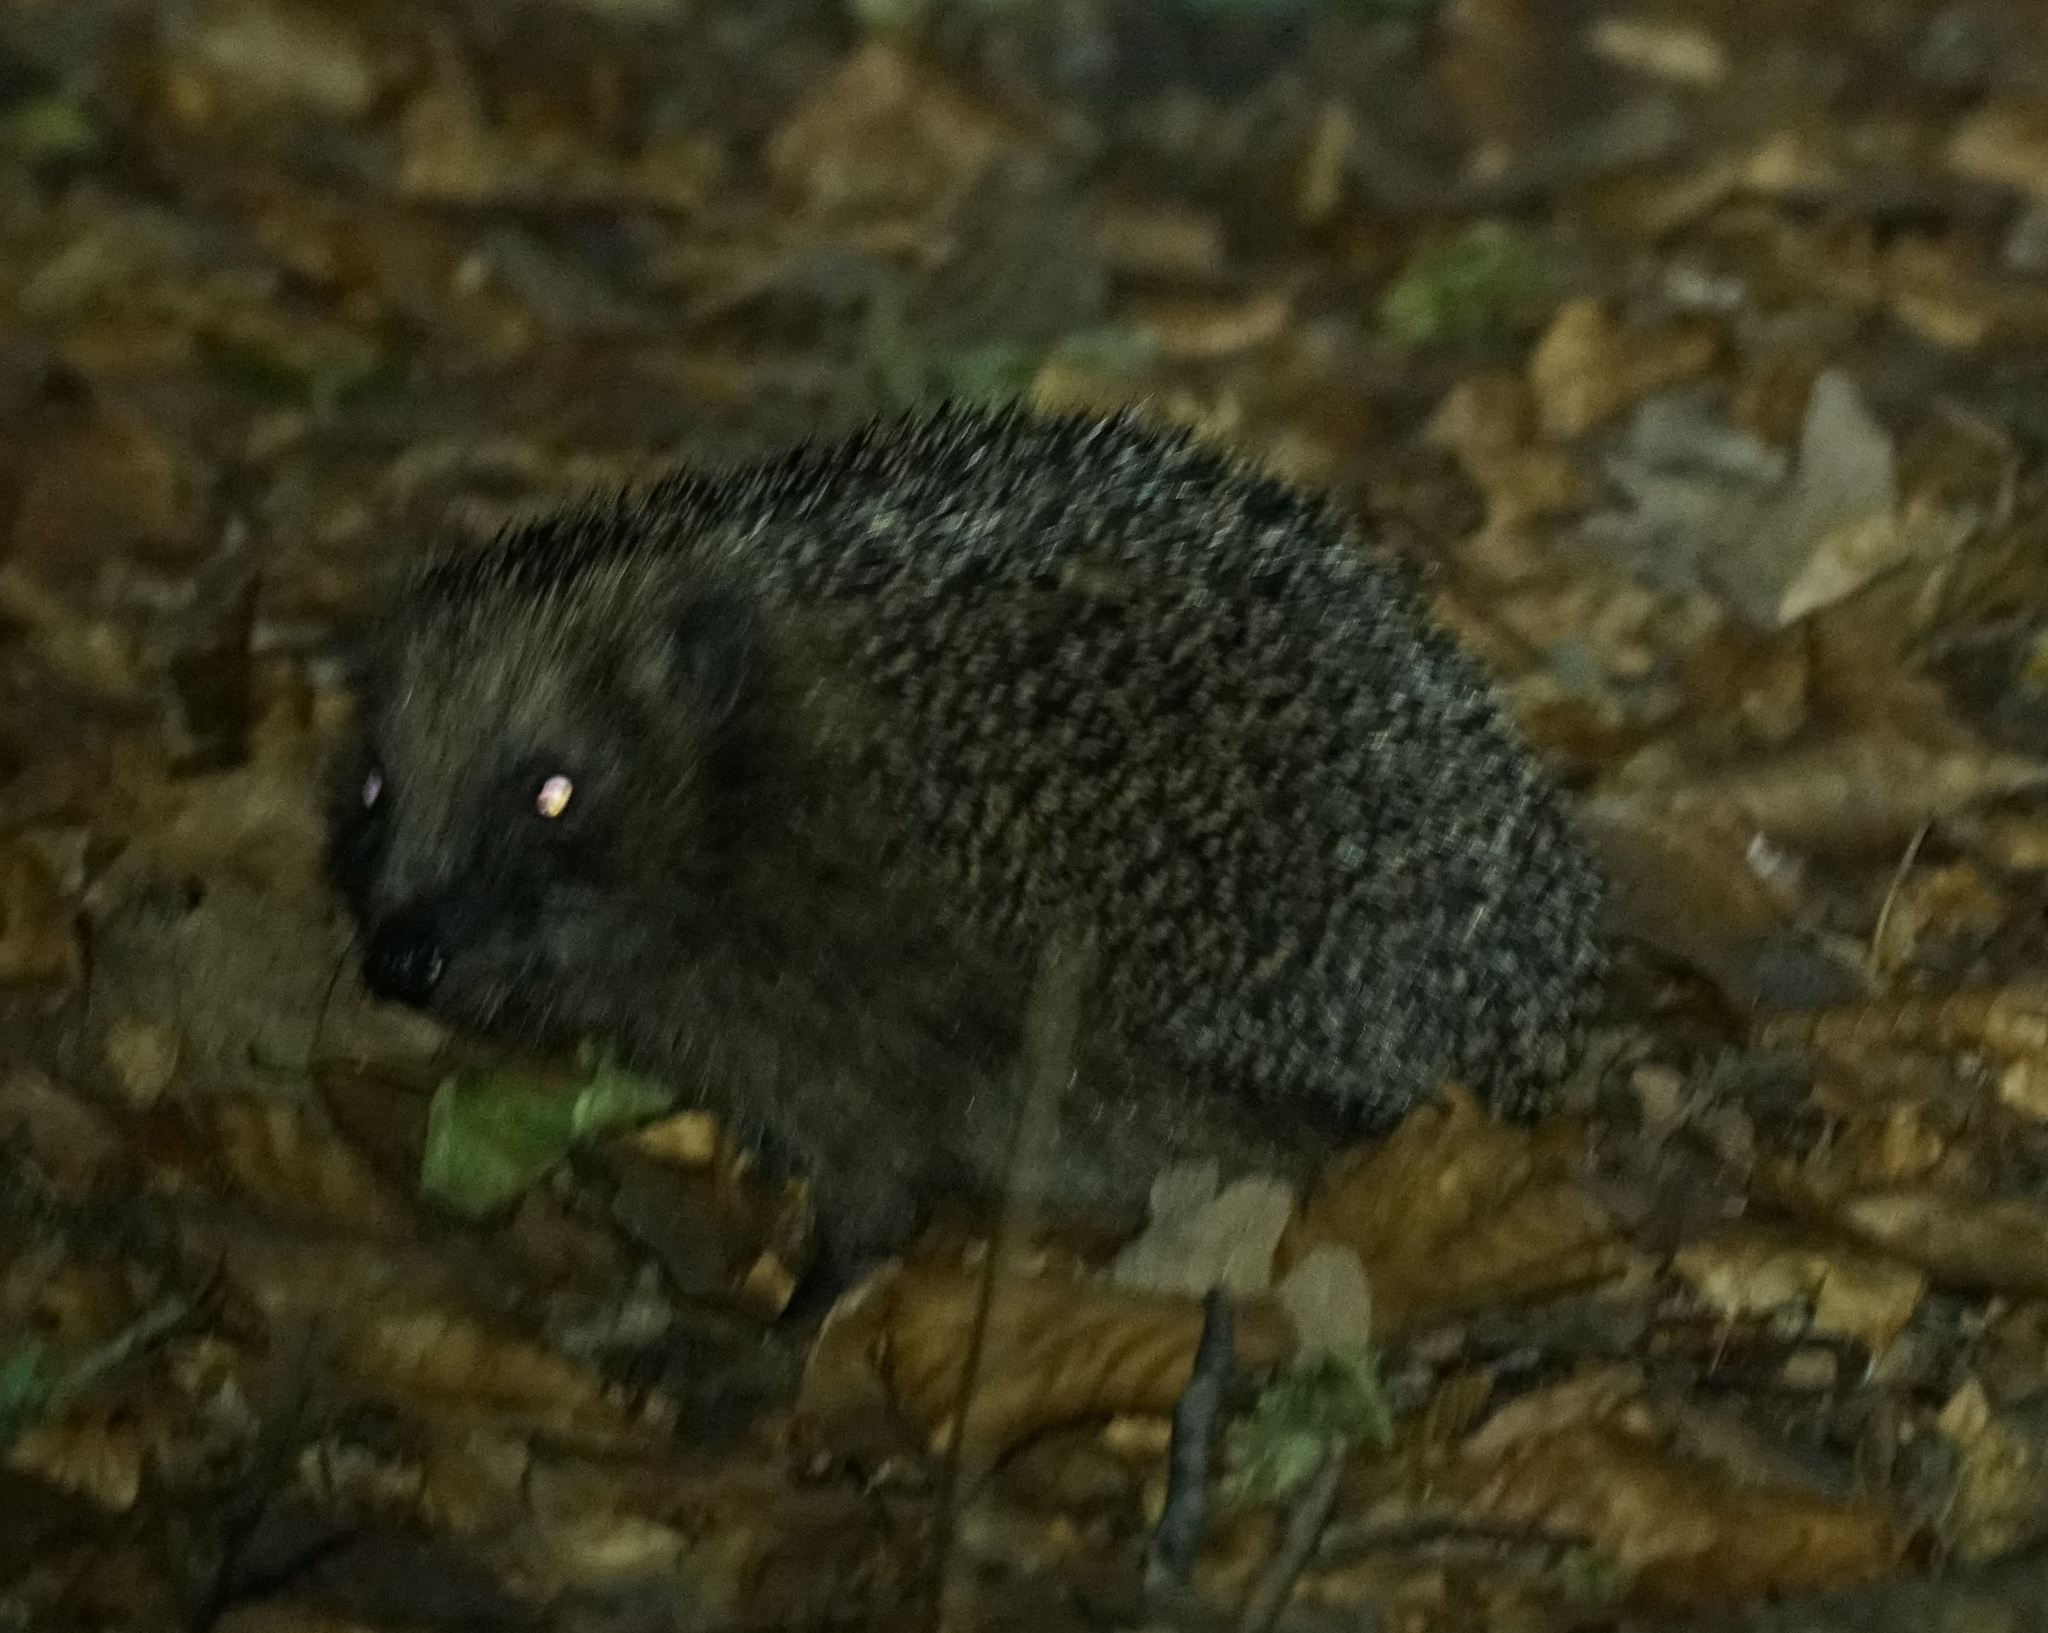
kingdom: Animalia
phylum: Chordata
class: Mammalia
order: Erinaceomorpha
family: Erinaceidae
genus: Erinaceus
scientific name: Erinaceus europaeus
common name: West european hedgehog
